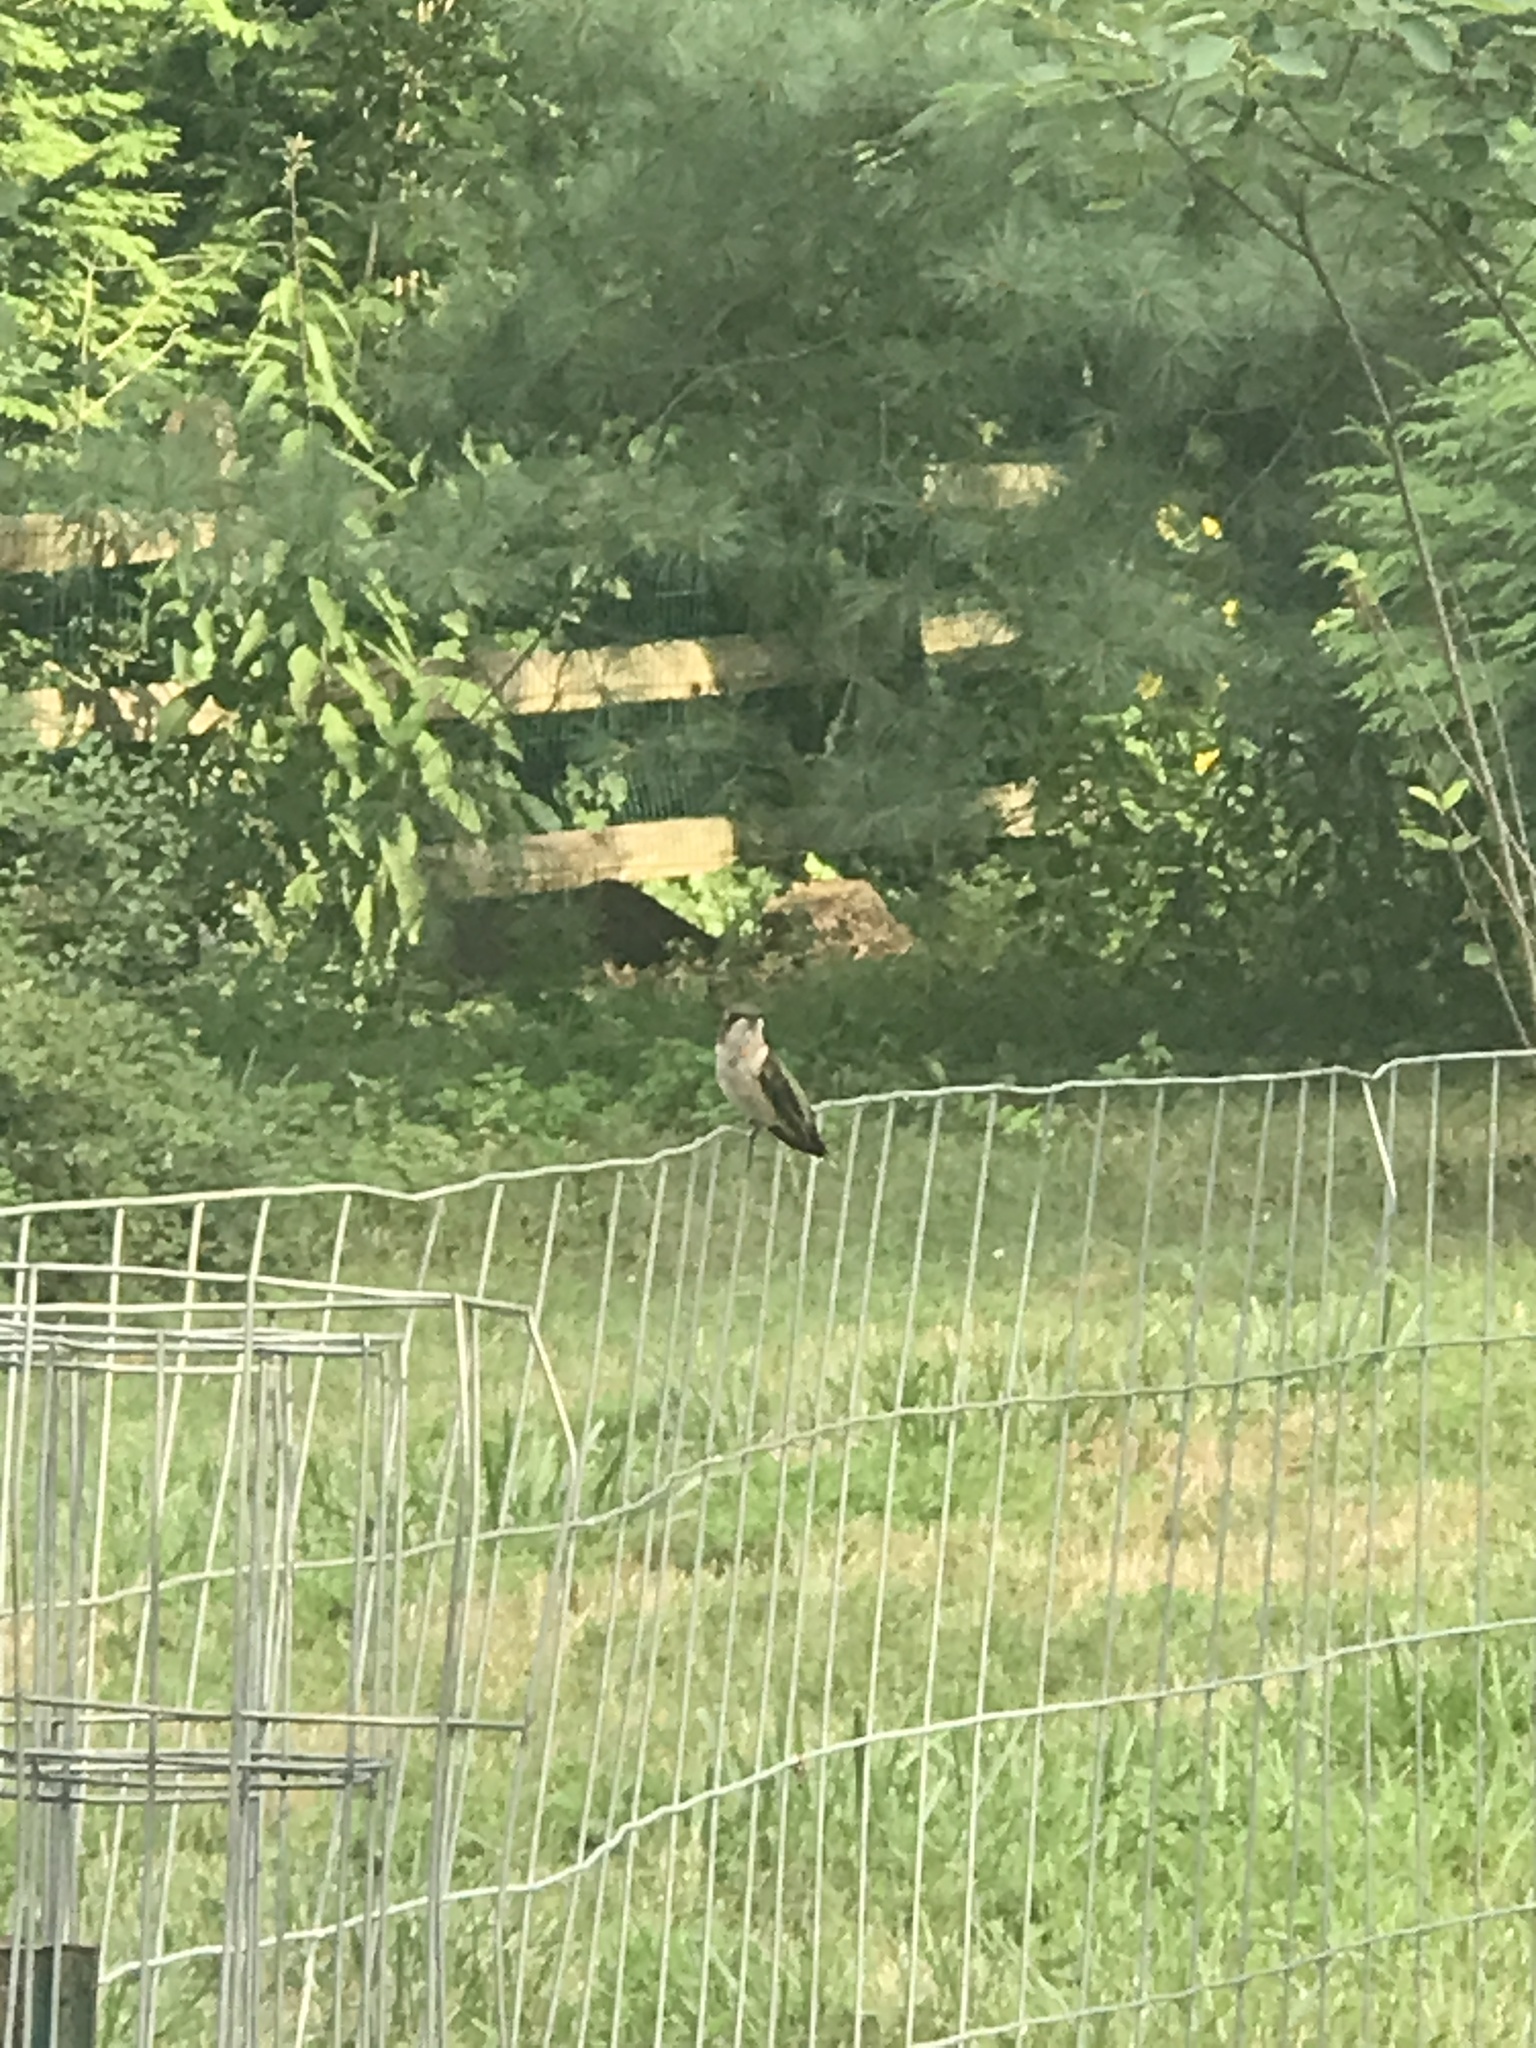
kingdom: Animalia
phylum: Chordata
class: Aves
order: Apodiformes
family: Trochilidae
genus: Archilochus
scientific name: Archilochus colubris
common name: Ruby-throated hummingbird
